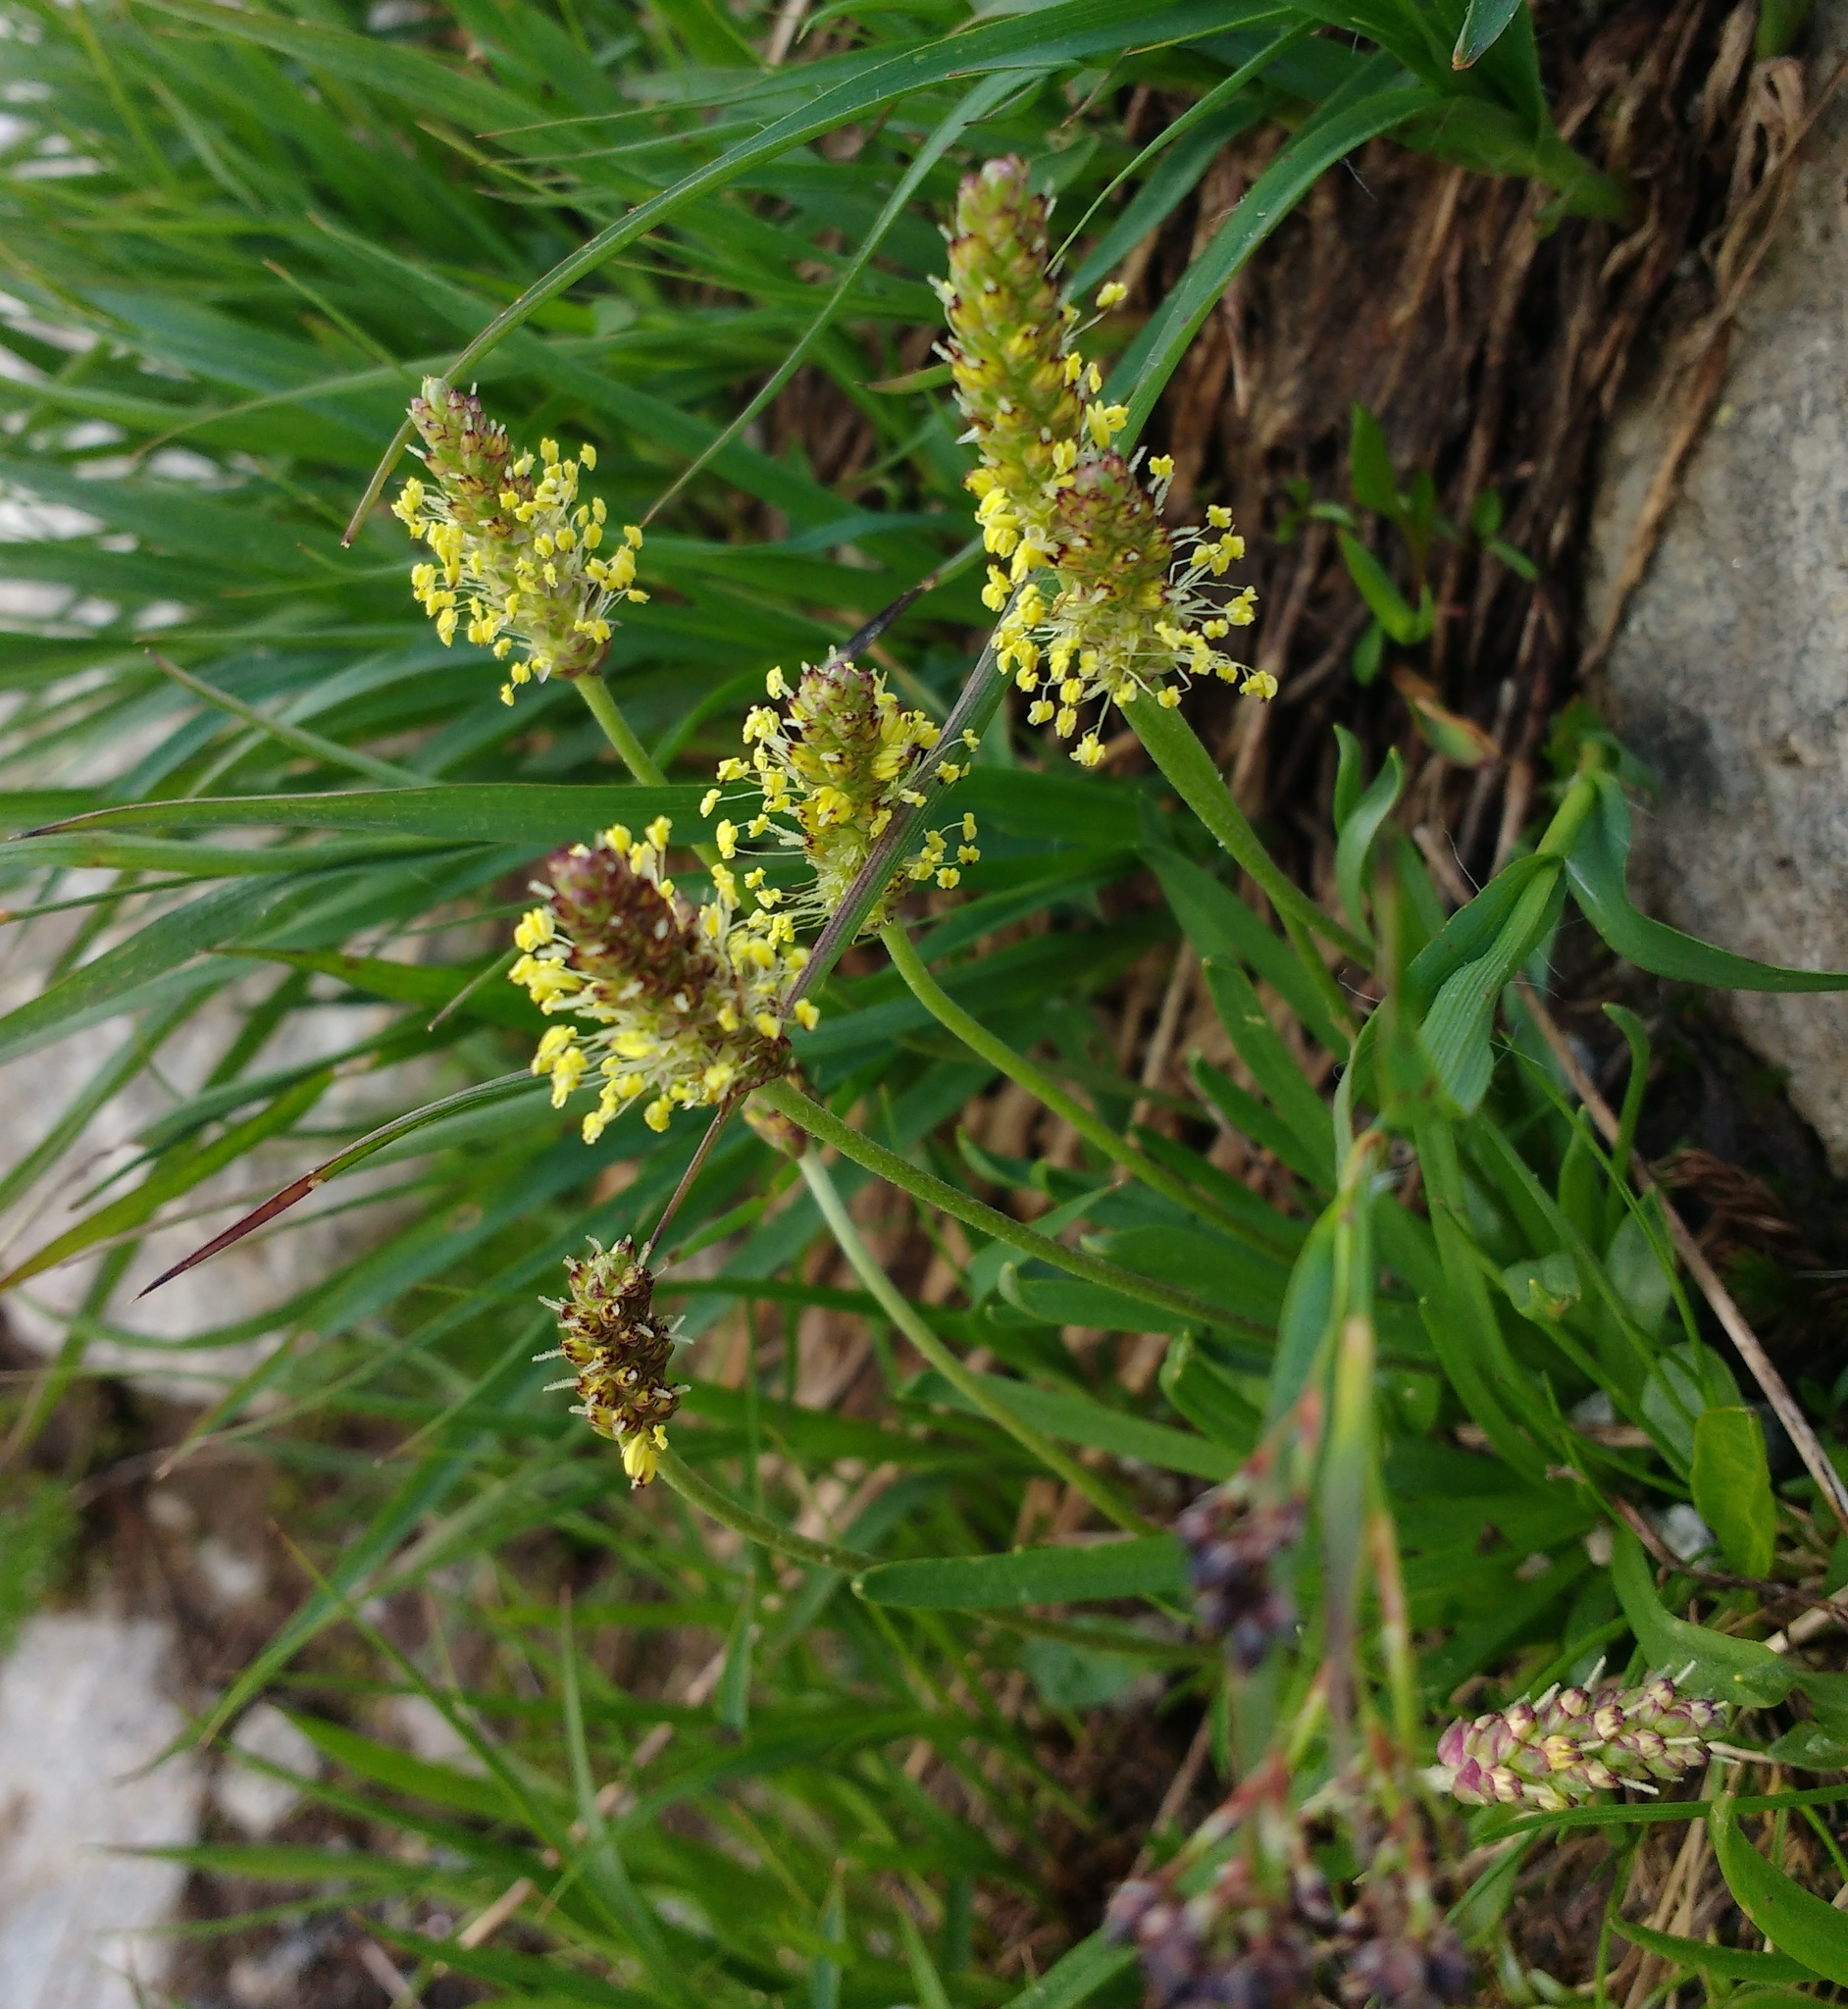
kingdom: Plantae
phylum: Tracheophyta
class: Magnoliopsida
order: Lamiales
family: Plantaginaceae
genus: Plantago
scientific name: Plantago alpina
